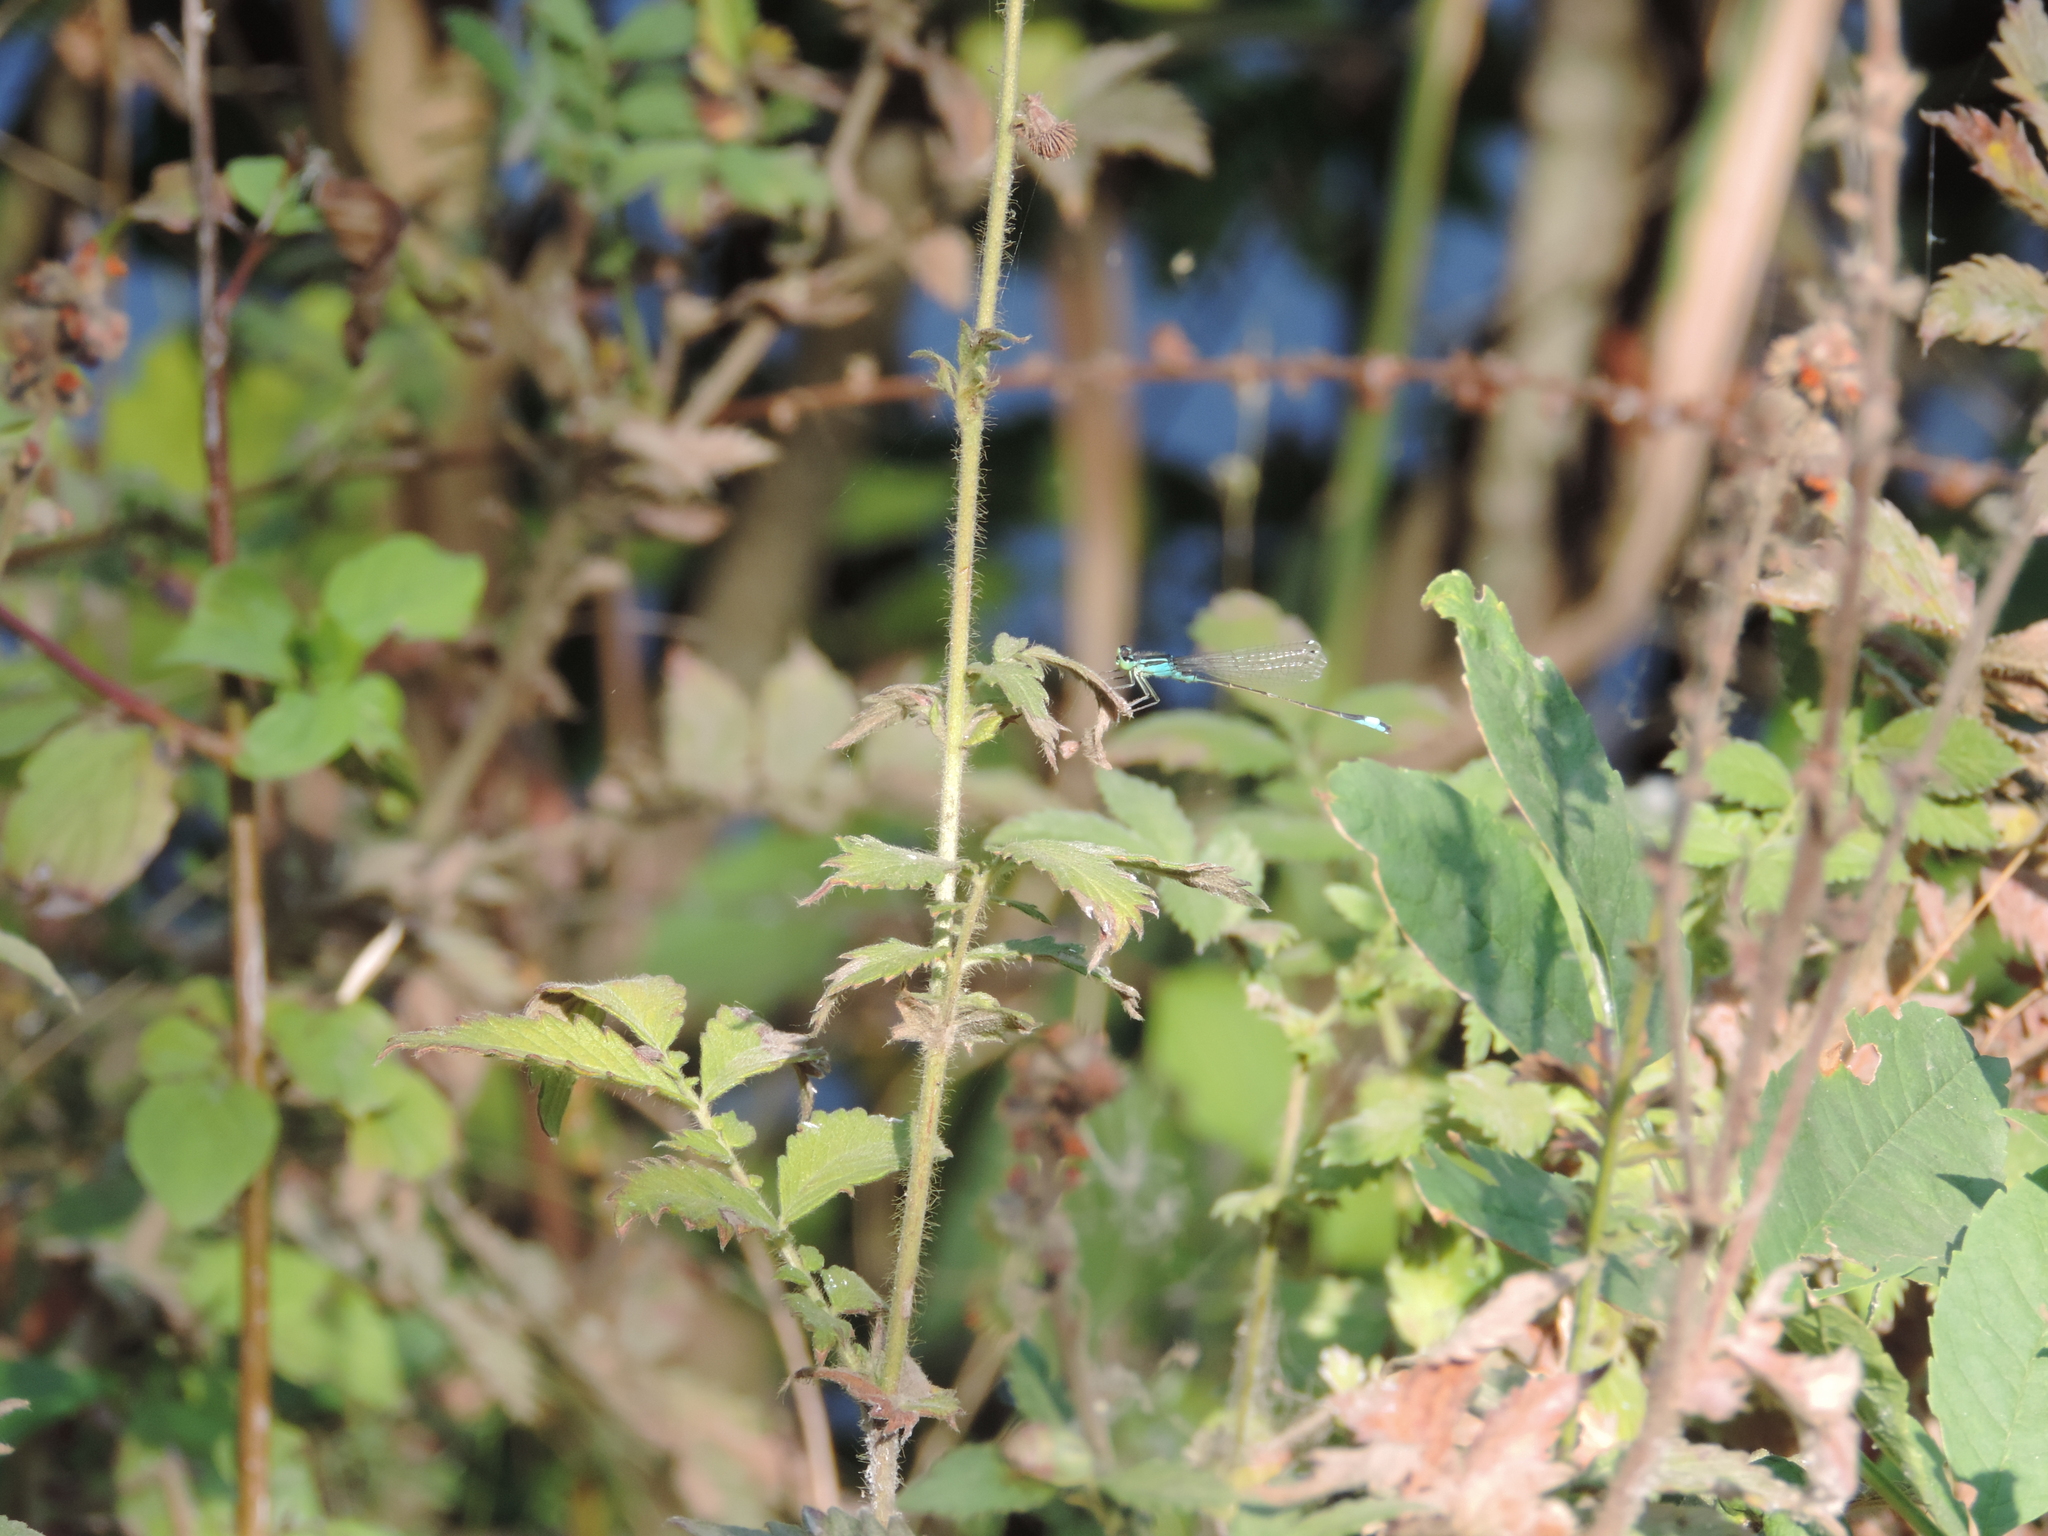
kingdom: Animalia
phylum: Arthropoda
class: Insecta
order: Odonata
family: Coenagrionidae
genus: Ischnura
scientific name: Ischnura elegans
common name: Blue-tailed damselfly
